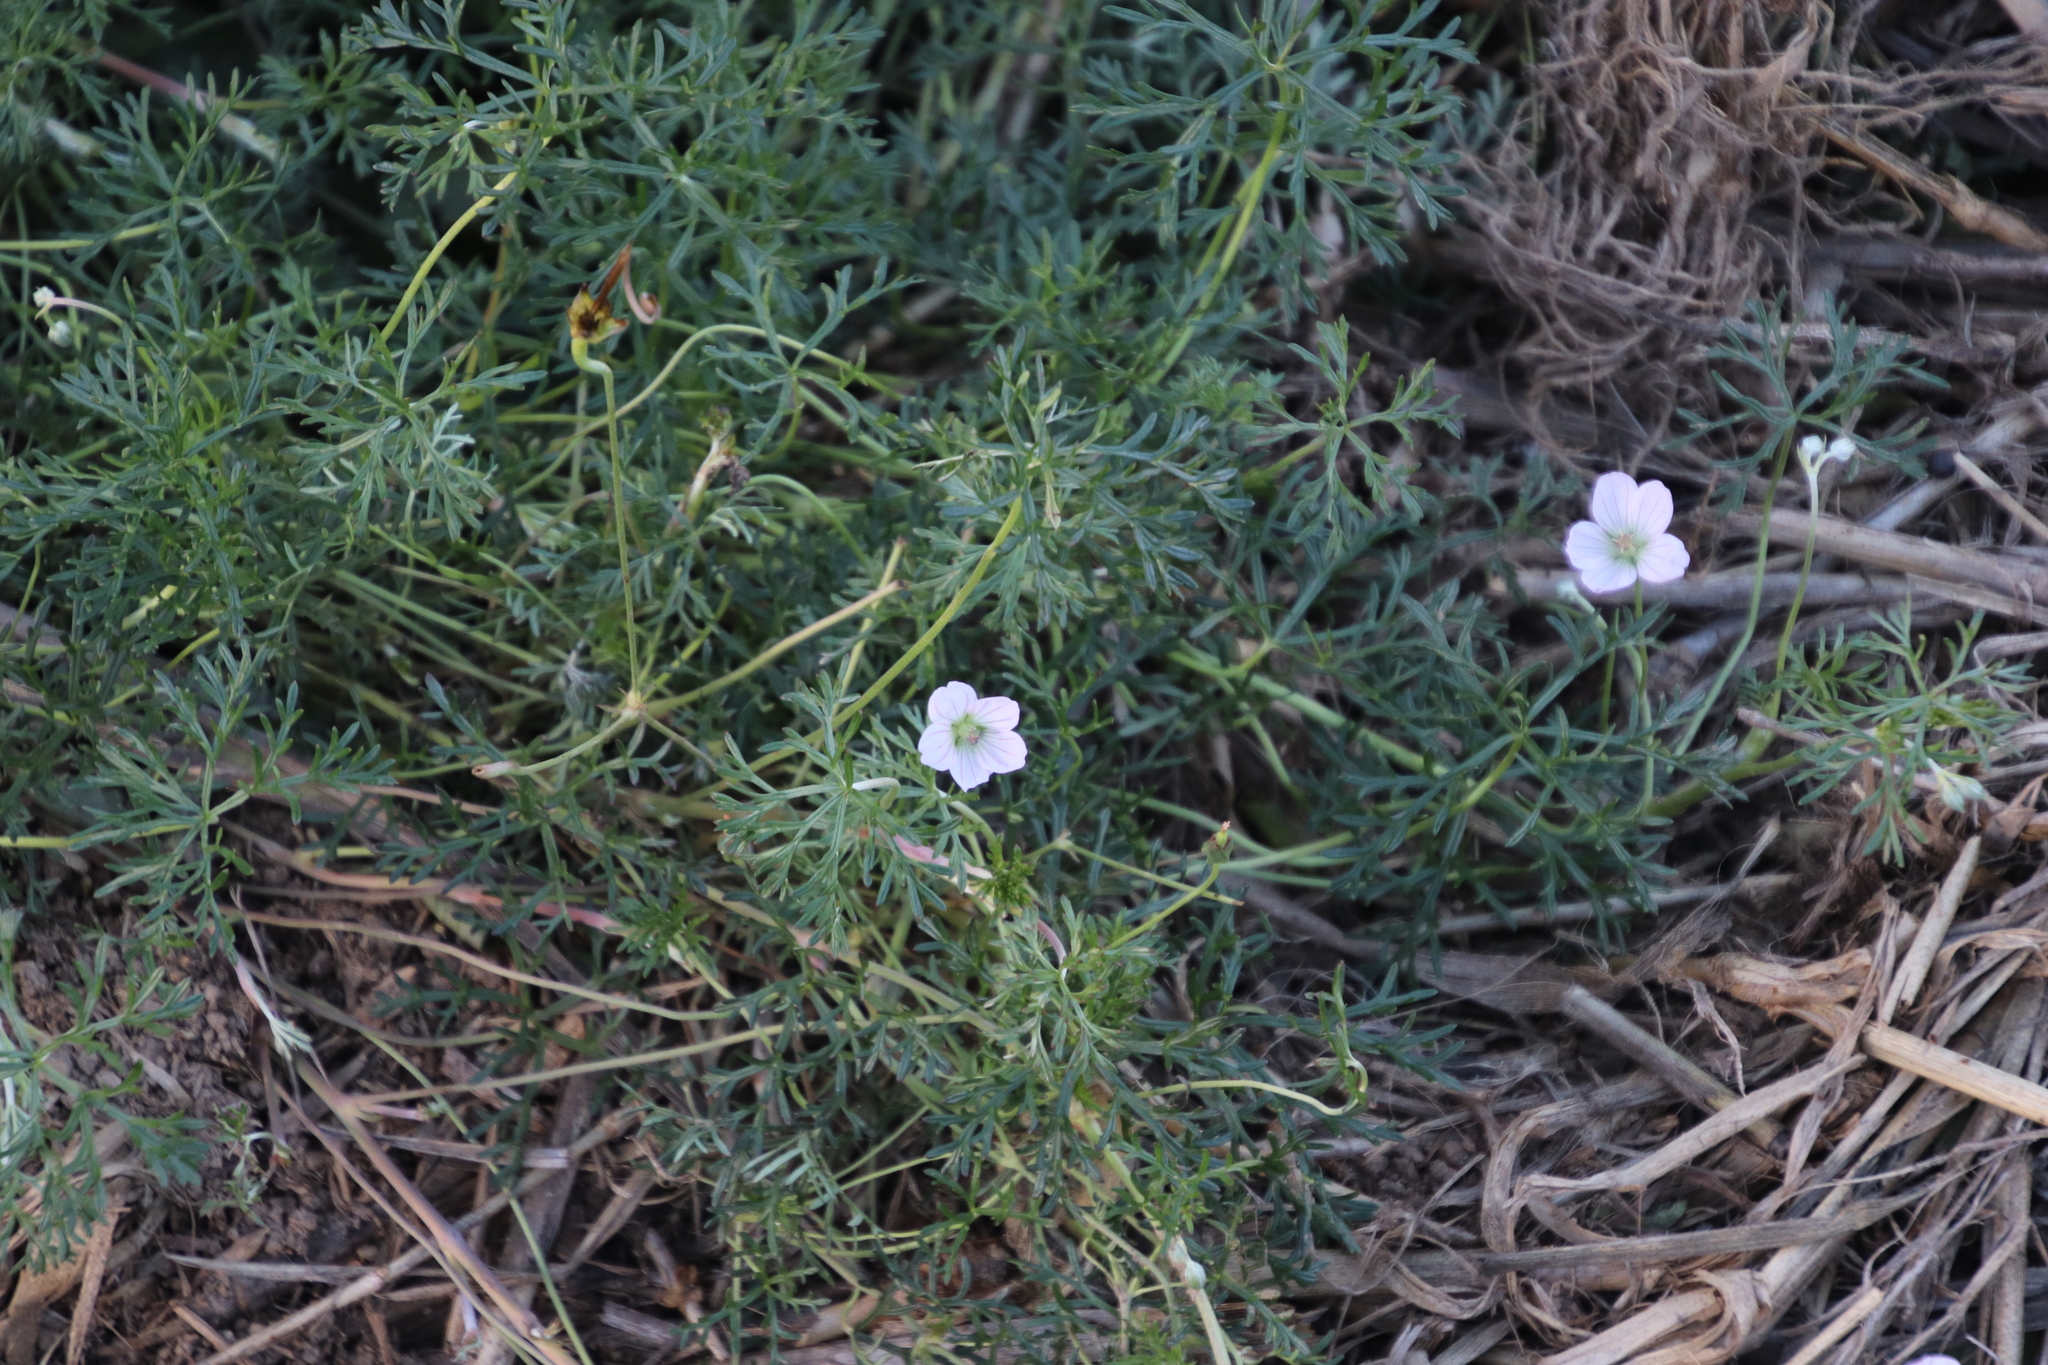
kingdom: Plantae
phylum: Tracheophyta
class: Magnoliopsida
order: Geraniales
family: Geraniaceae
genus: Geranium
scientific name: Geranium incanum
